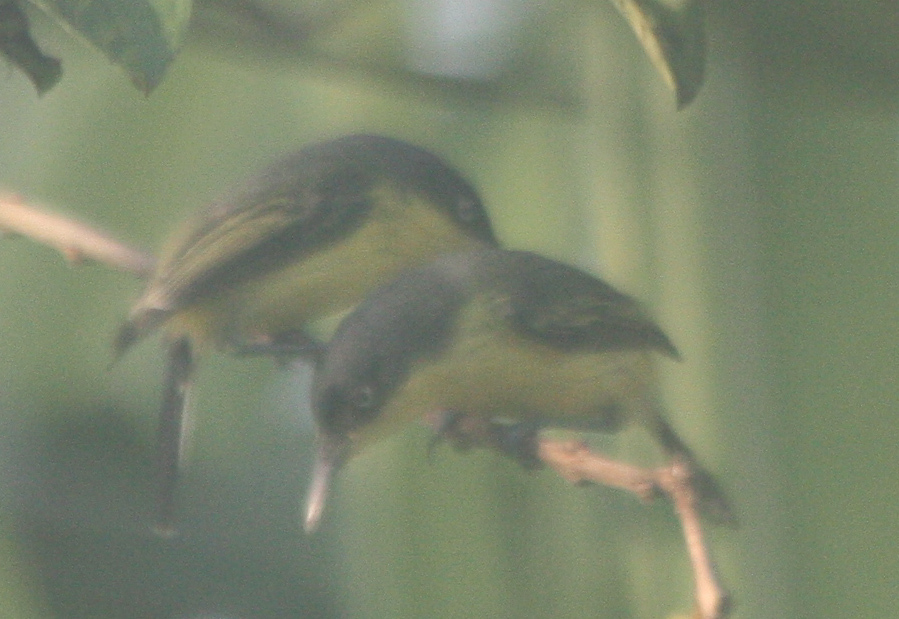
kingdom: Animalia
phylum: Chordata
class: Aves
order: Passeriformes
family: Tyrannidae
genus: Todirostrum
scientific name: Todirostrum cinereum
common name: Common tody-flycatcher
